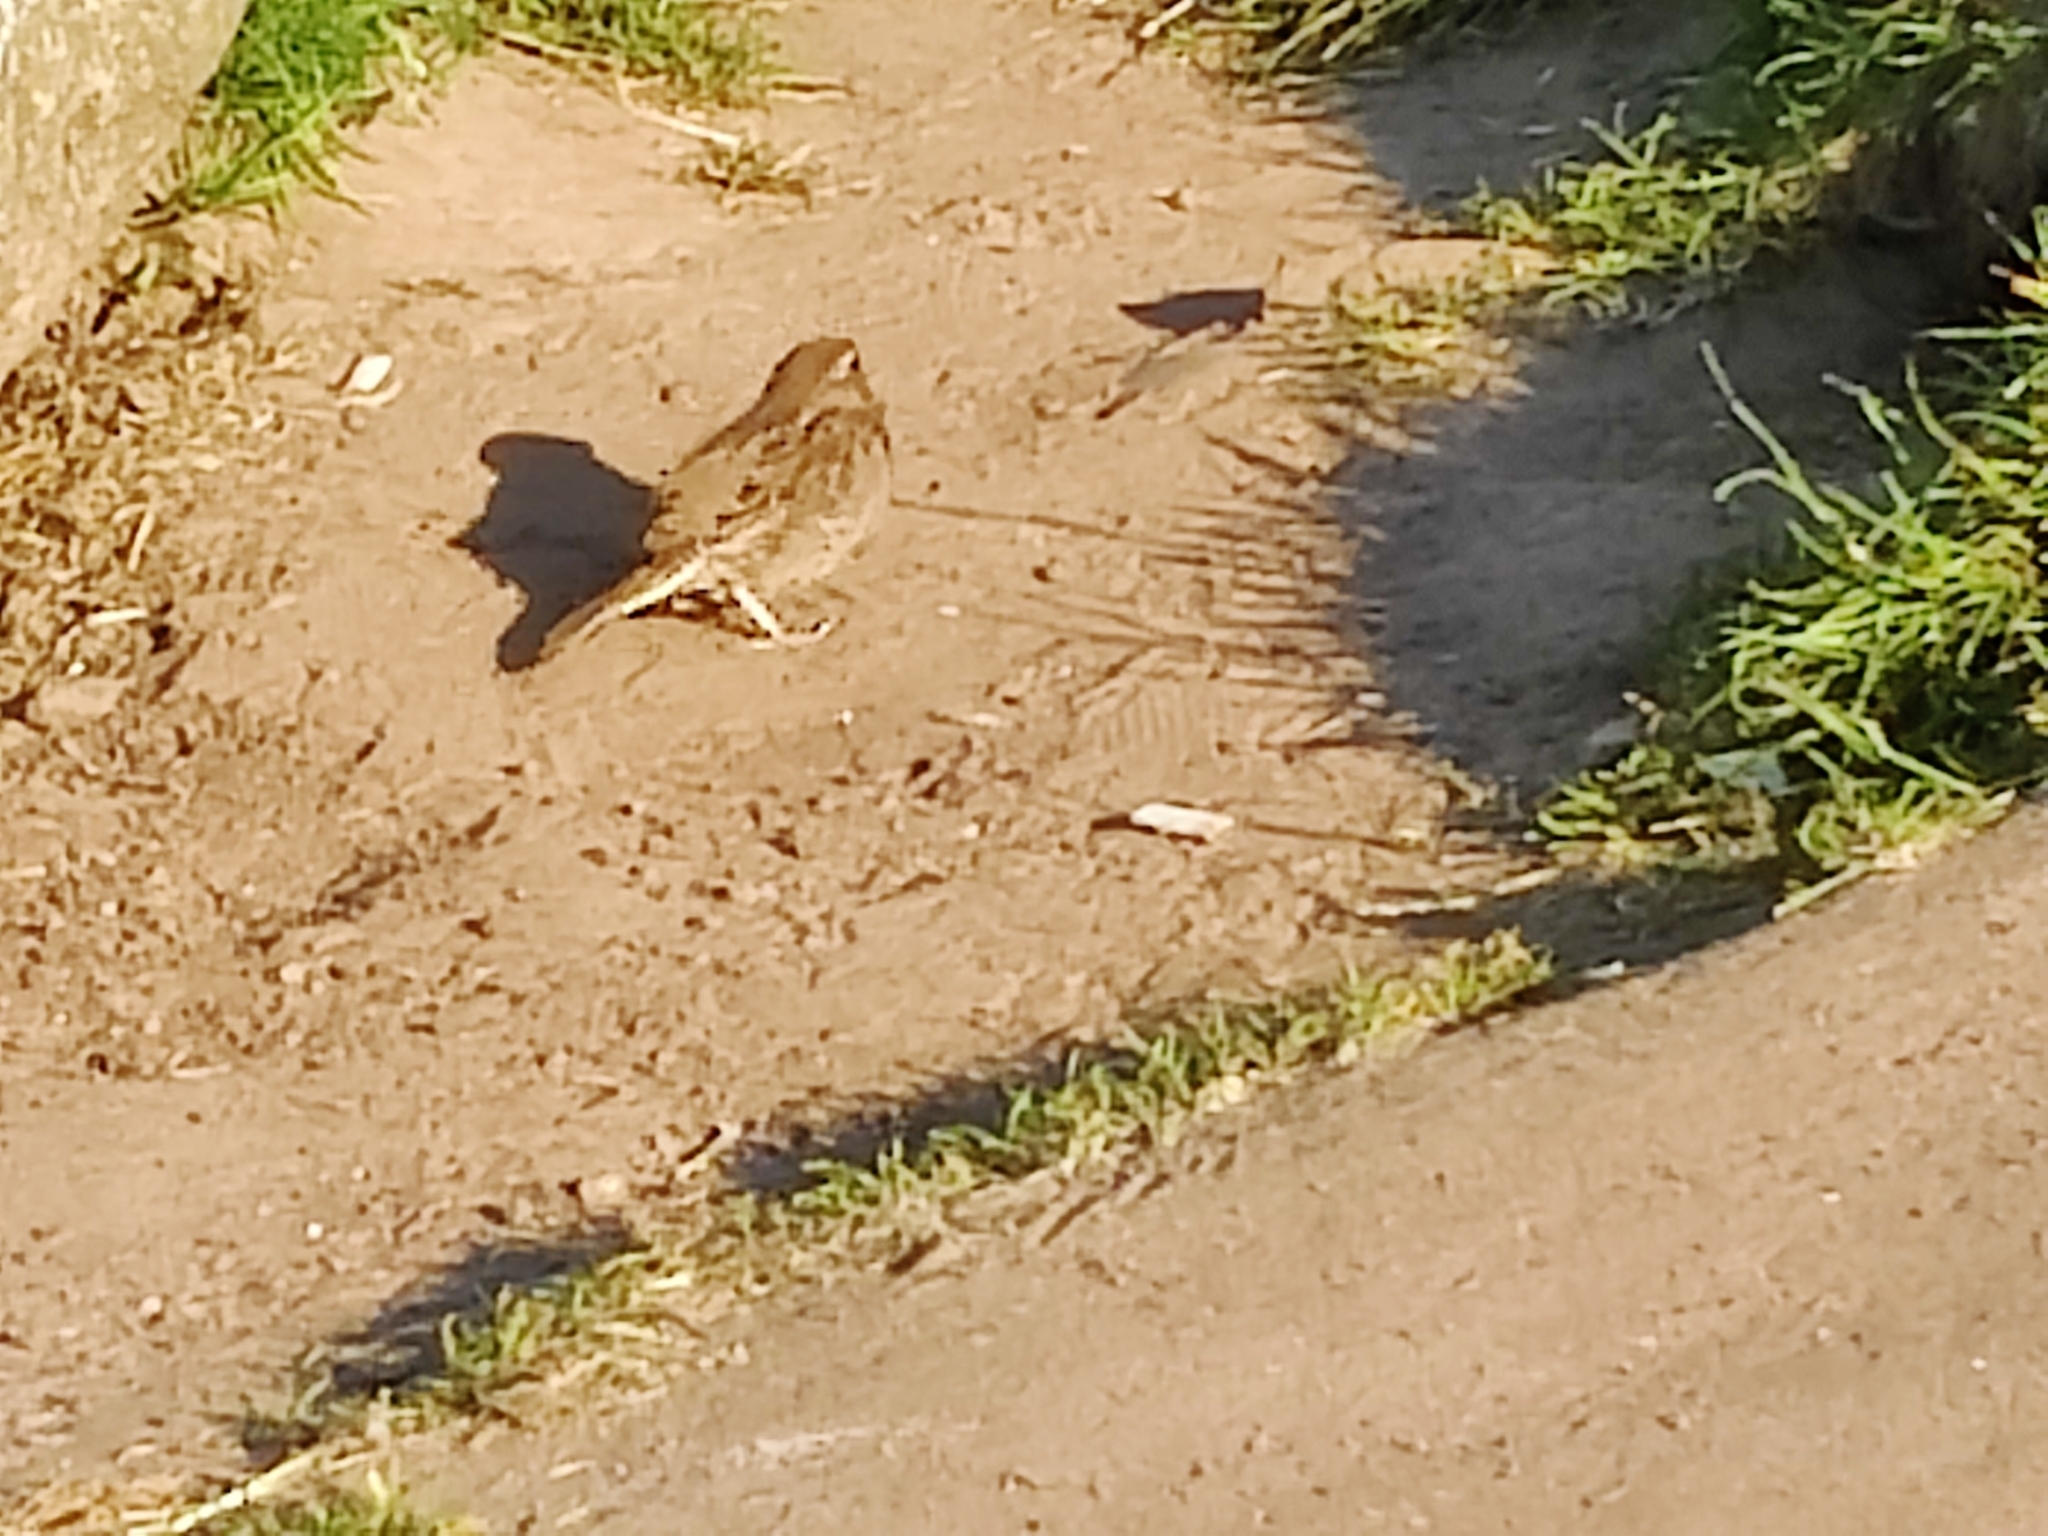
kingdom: Animalia
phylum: Chordata
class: Aves
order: Passeriformes
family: Passeridae
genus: Passer
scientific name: Passer domesticus
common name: House sparrow
